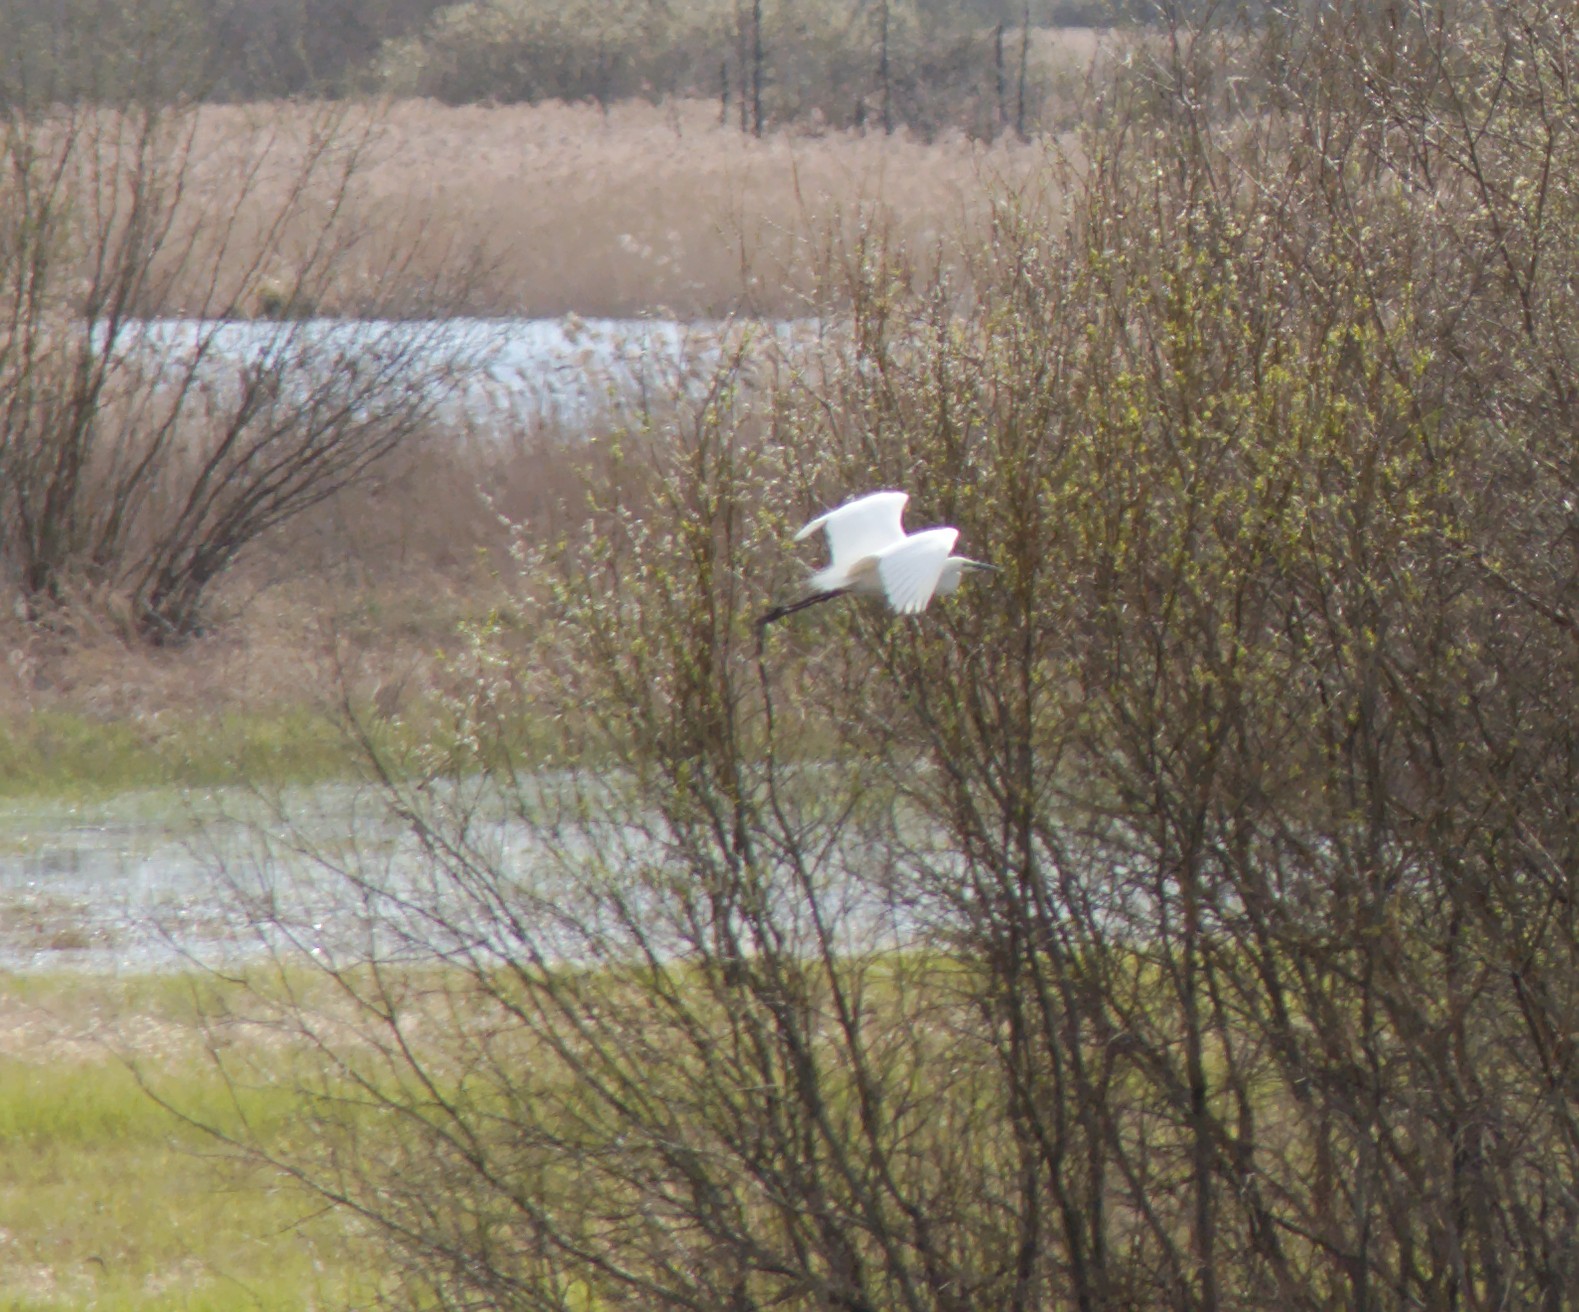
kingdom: Animalia
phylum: Chordata
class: Aves
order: Pelecaniformes
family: Ardeidae
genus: Ardea
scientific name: Ardea alba
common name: Great egret
